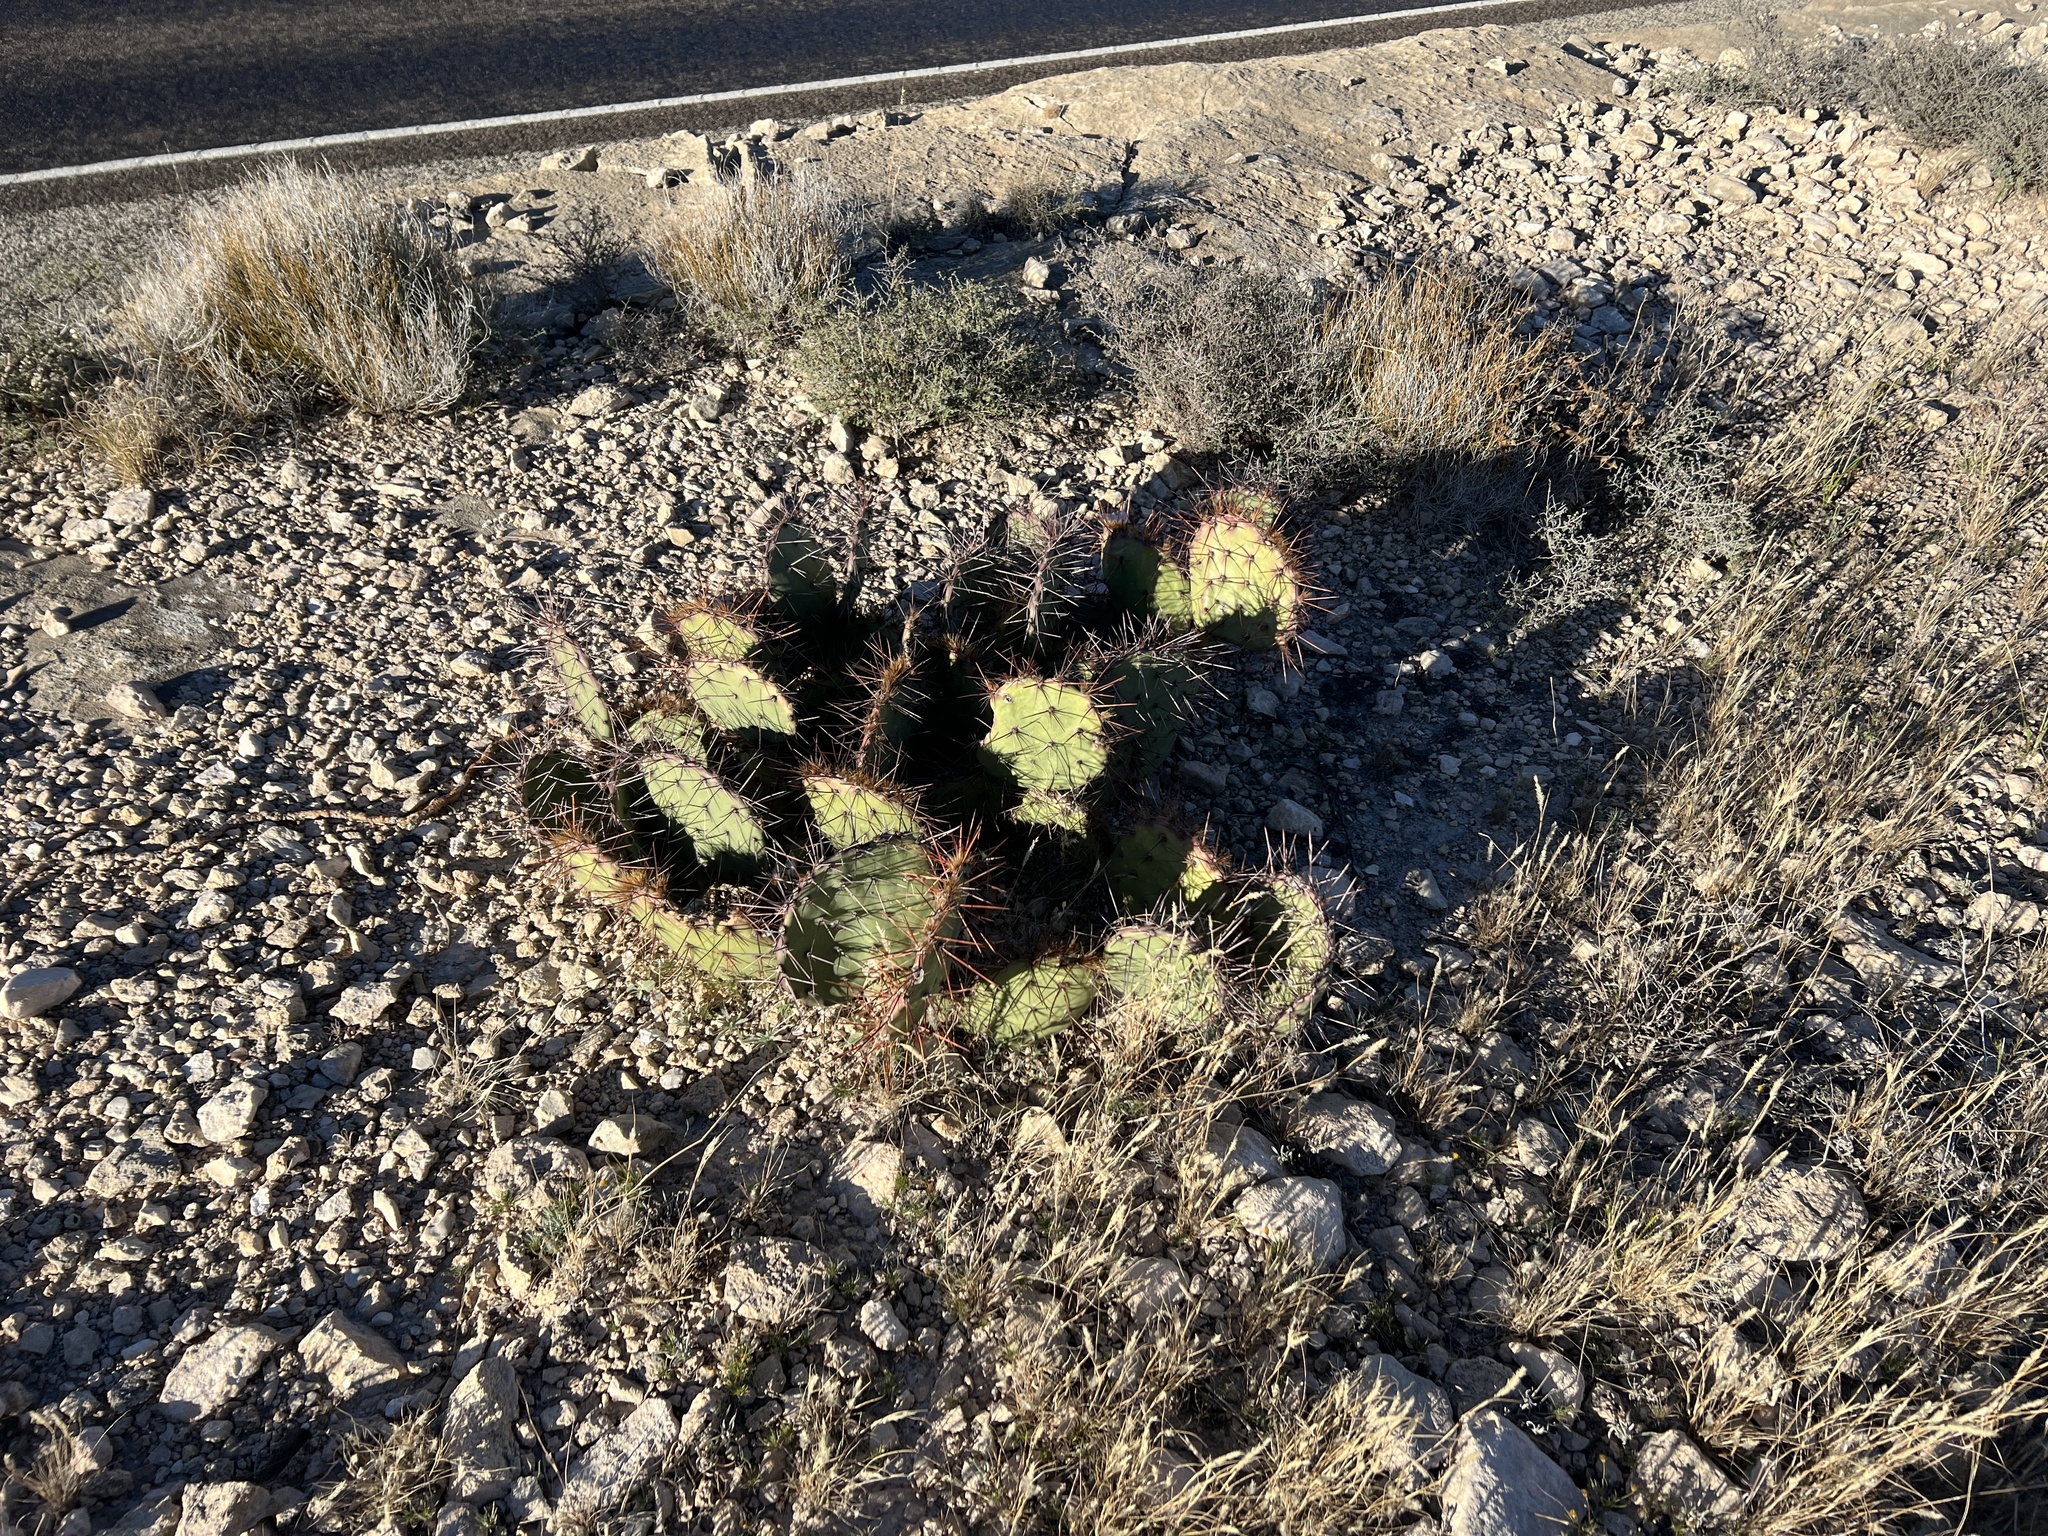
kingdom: Plantae
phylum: Tracheophyta
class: Magnoliopsida
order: Caryophyllales
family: Cactaceae
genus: Opuntia
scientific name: Opuntia phaeacantha
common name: New mexico prickly-pear
